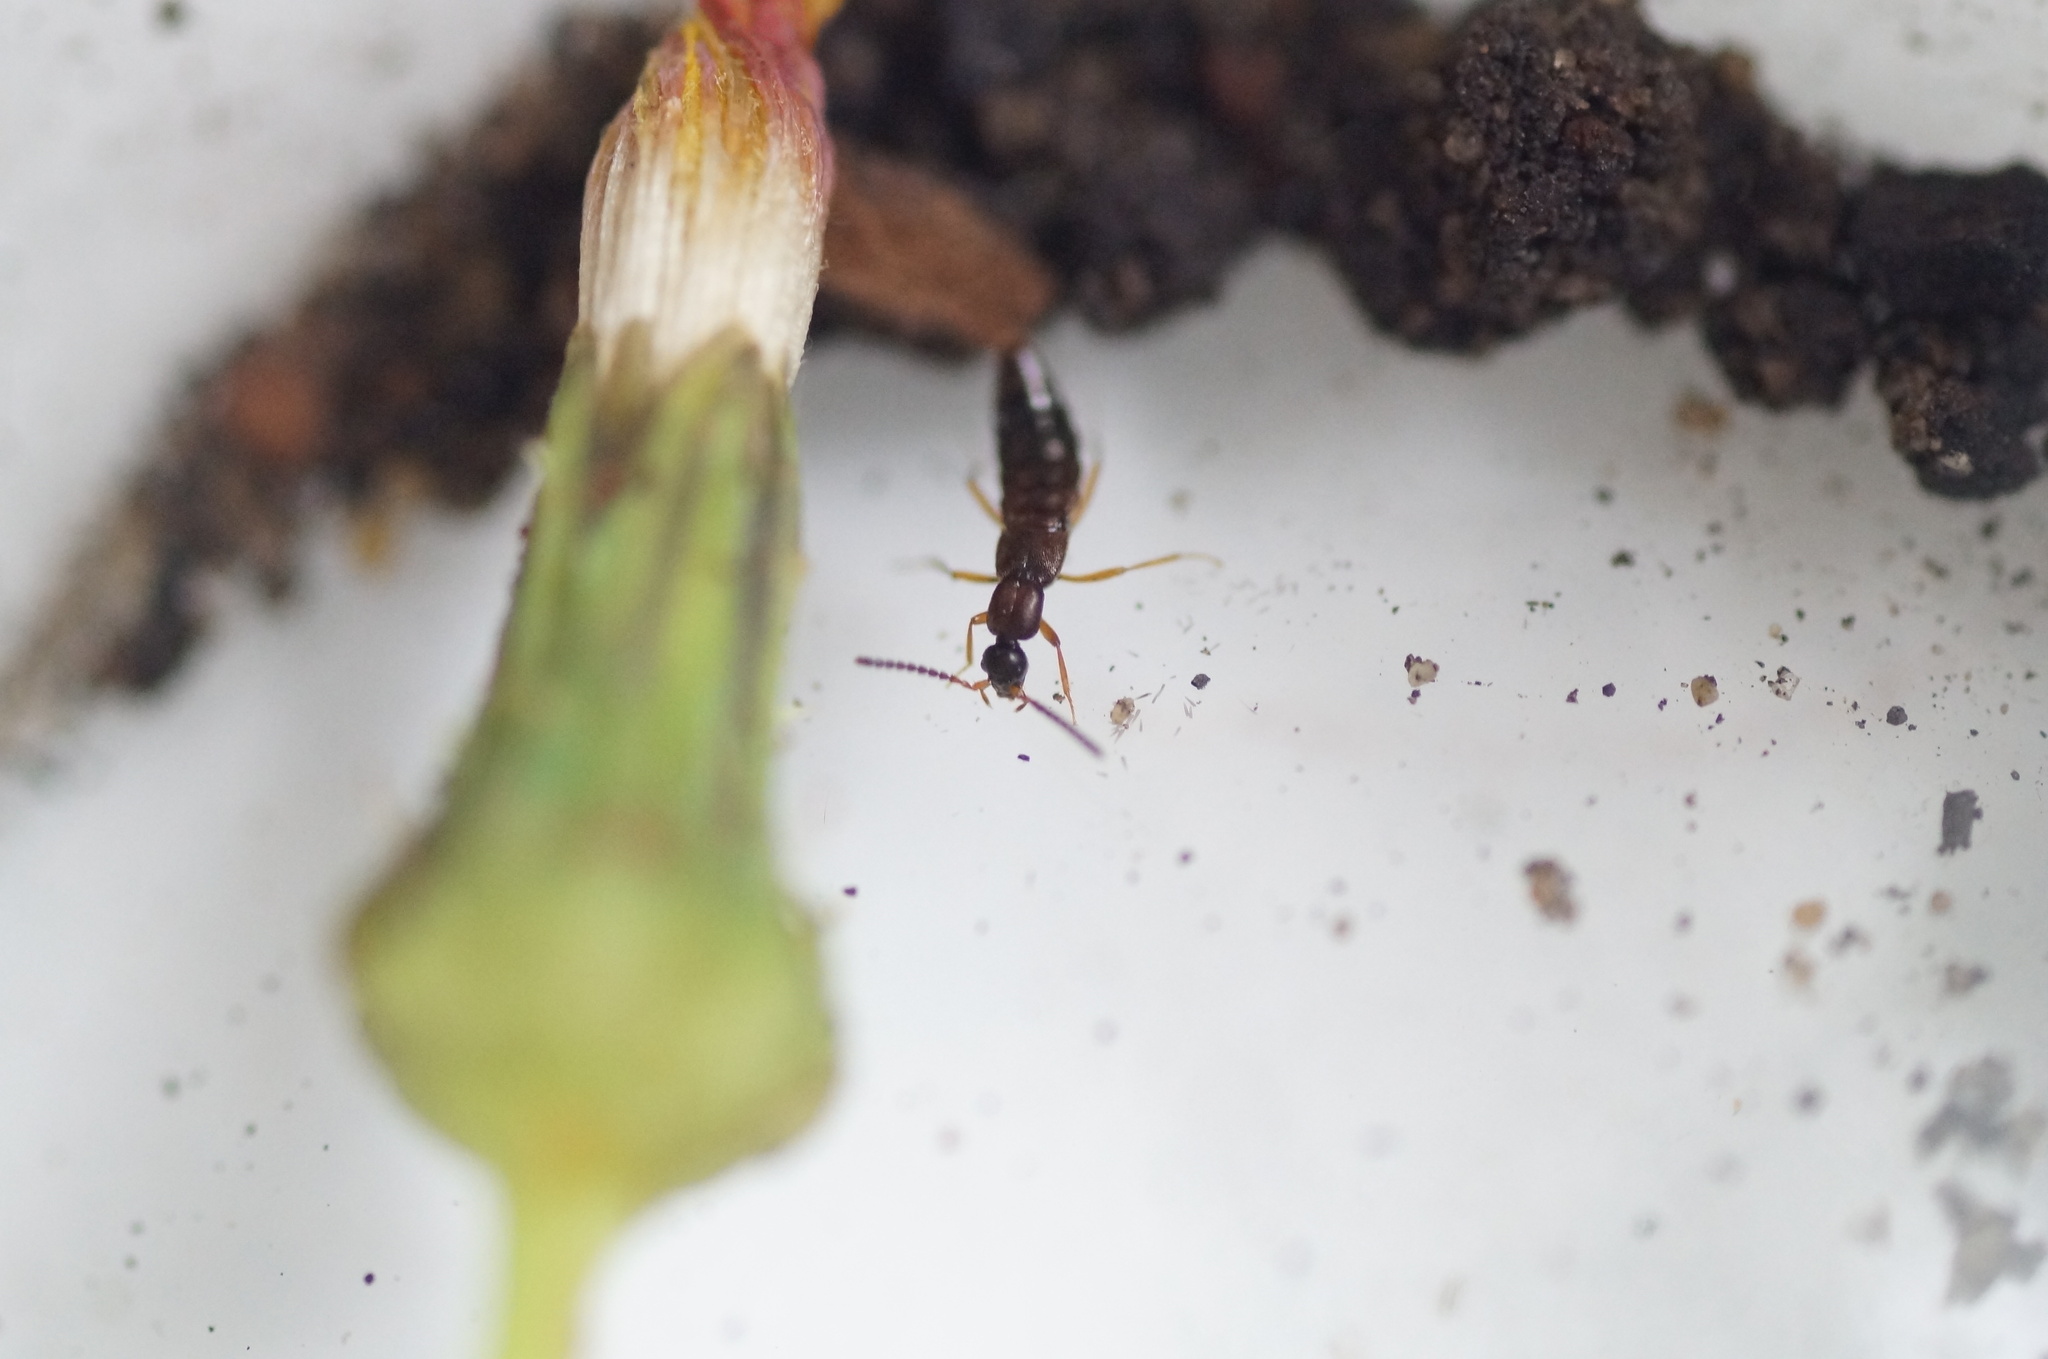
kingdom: Animalia
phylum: Arthropoda
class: Insecta
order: Coleoptera
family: Staphylinidae
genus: Drusilla
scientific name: Drusilla canaliculata
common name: Rove beetle
